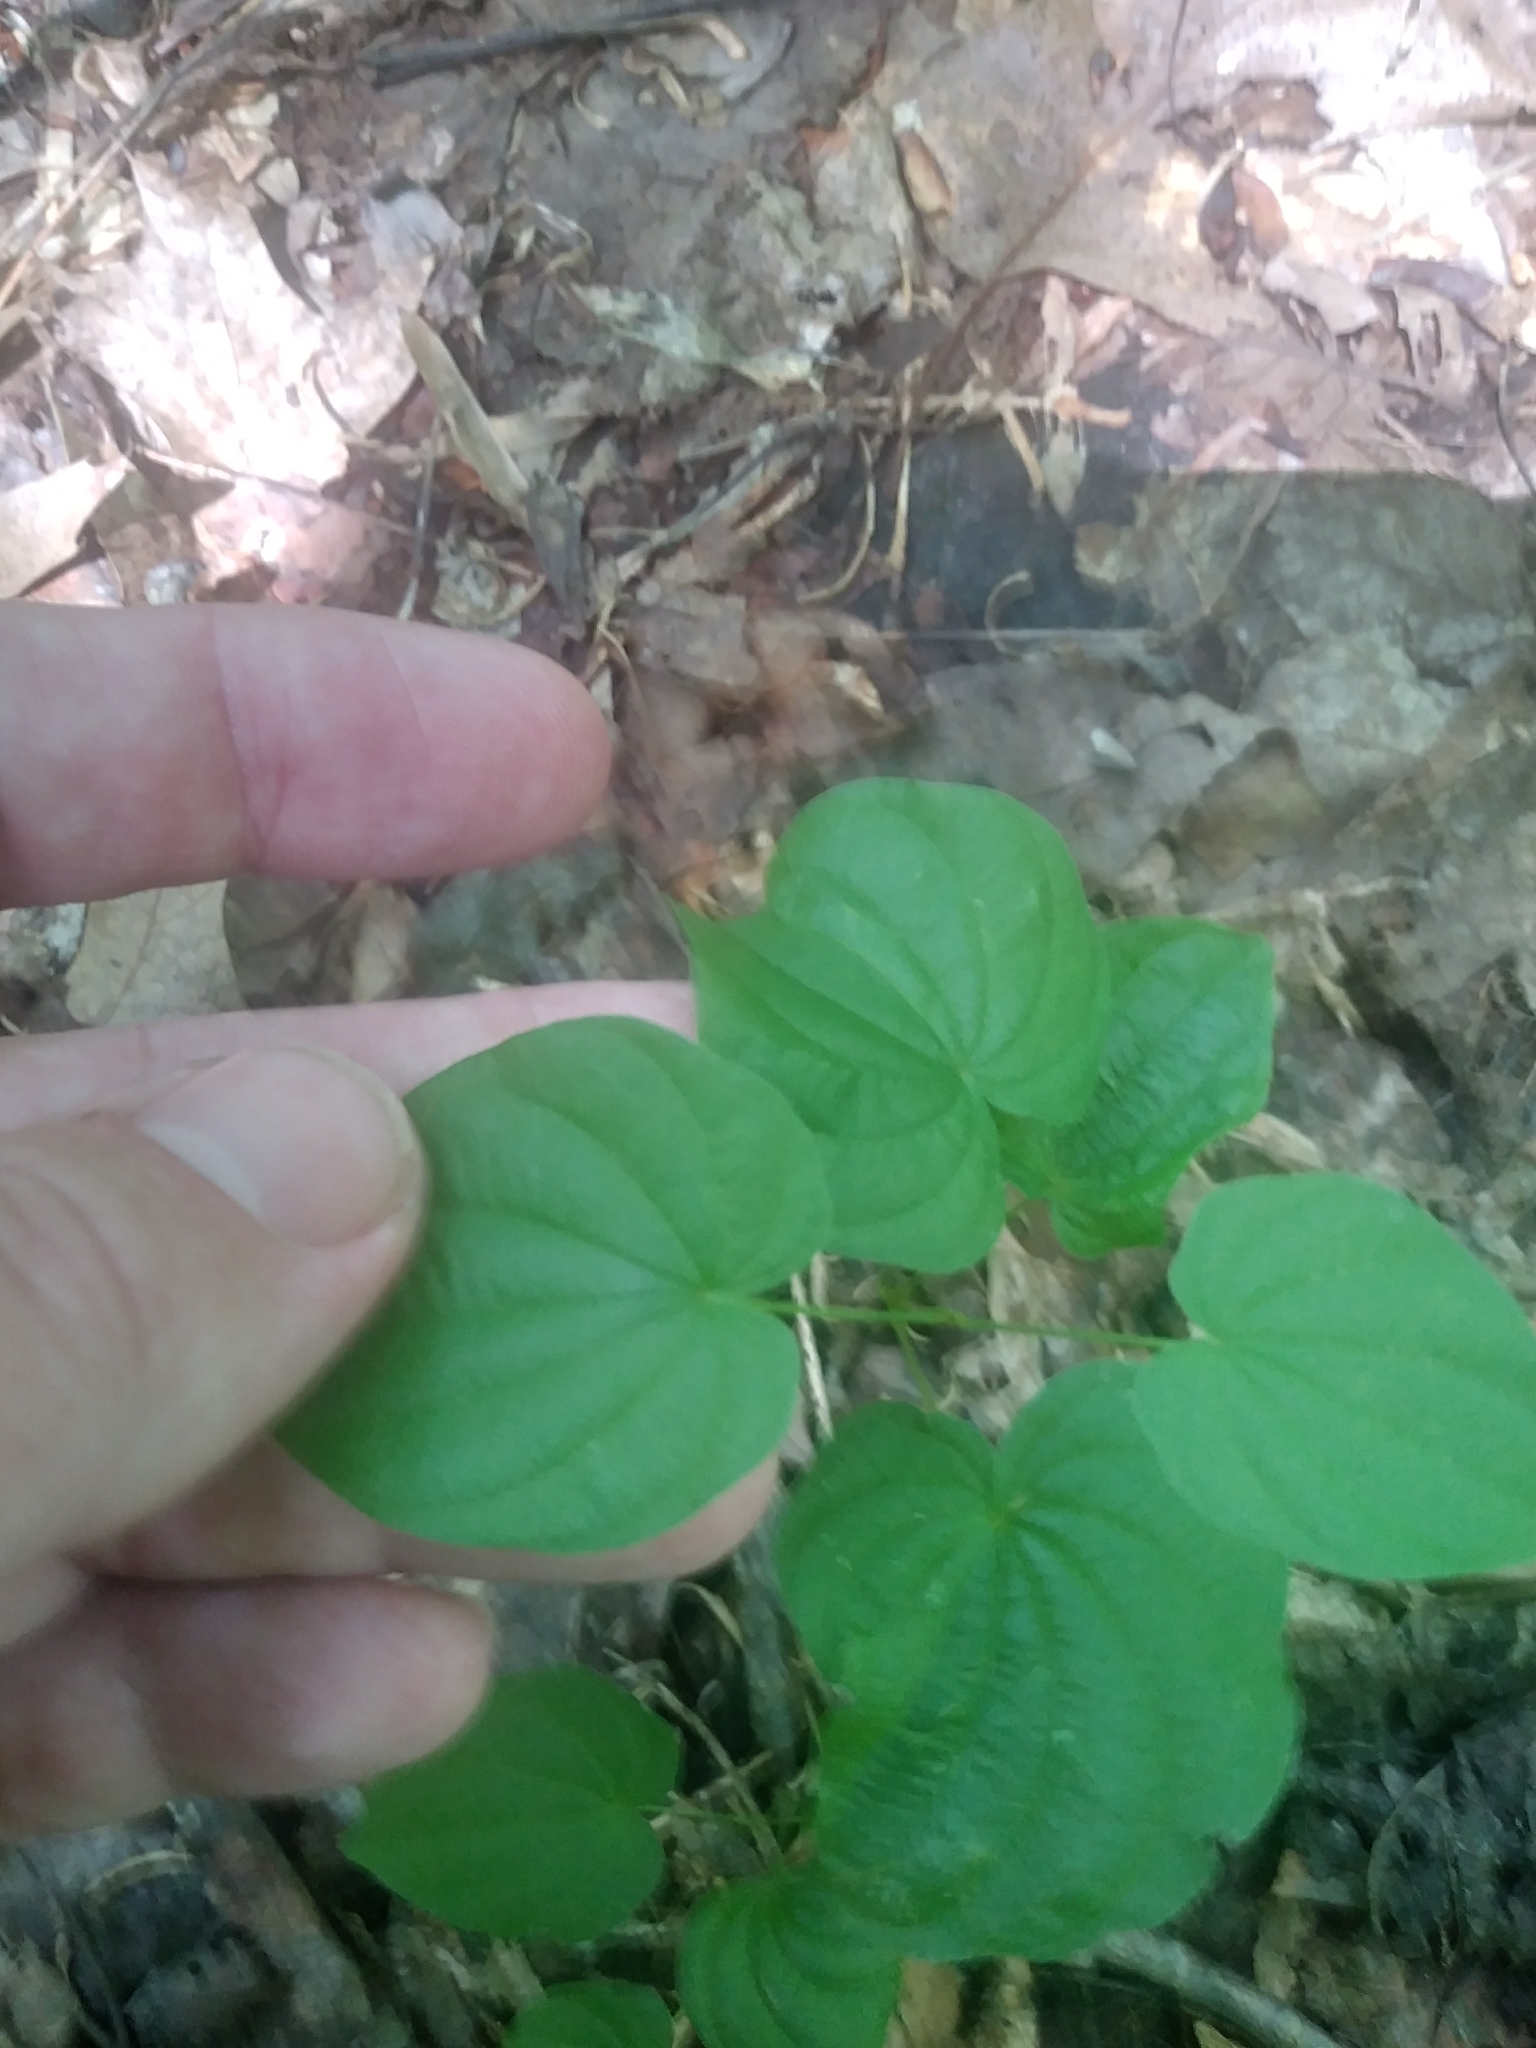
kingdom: Plantae
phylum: Tracheophyta
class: Liliopsida
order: Dioscoreales
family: Dioscoreaceae
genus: Dioscorea
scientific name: Dioscorea villosa
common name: Wild yam
